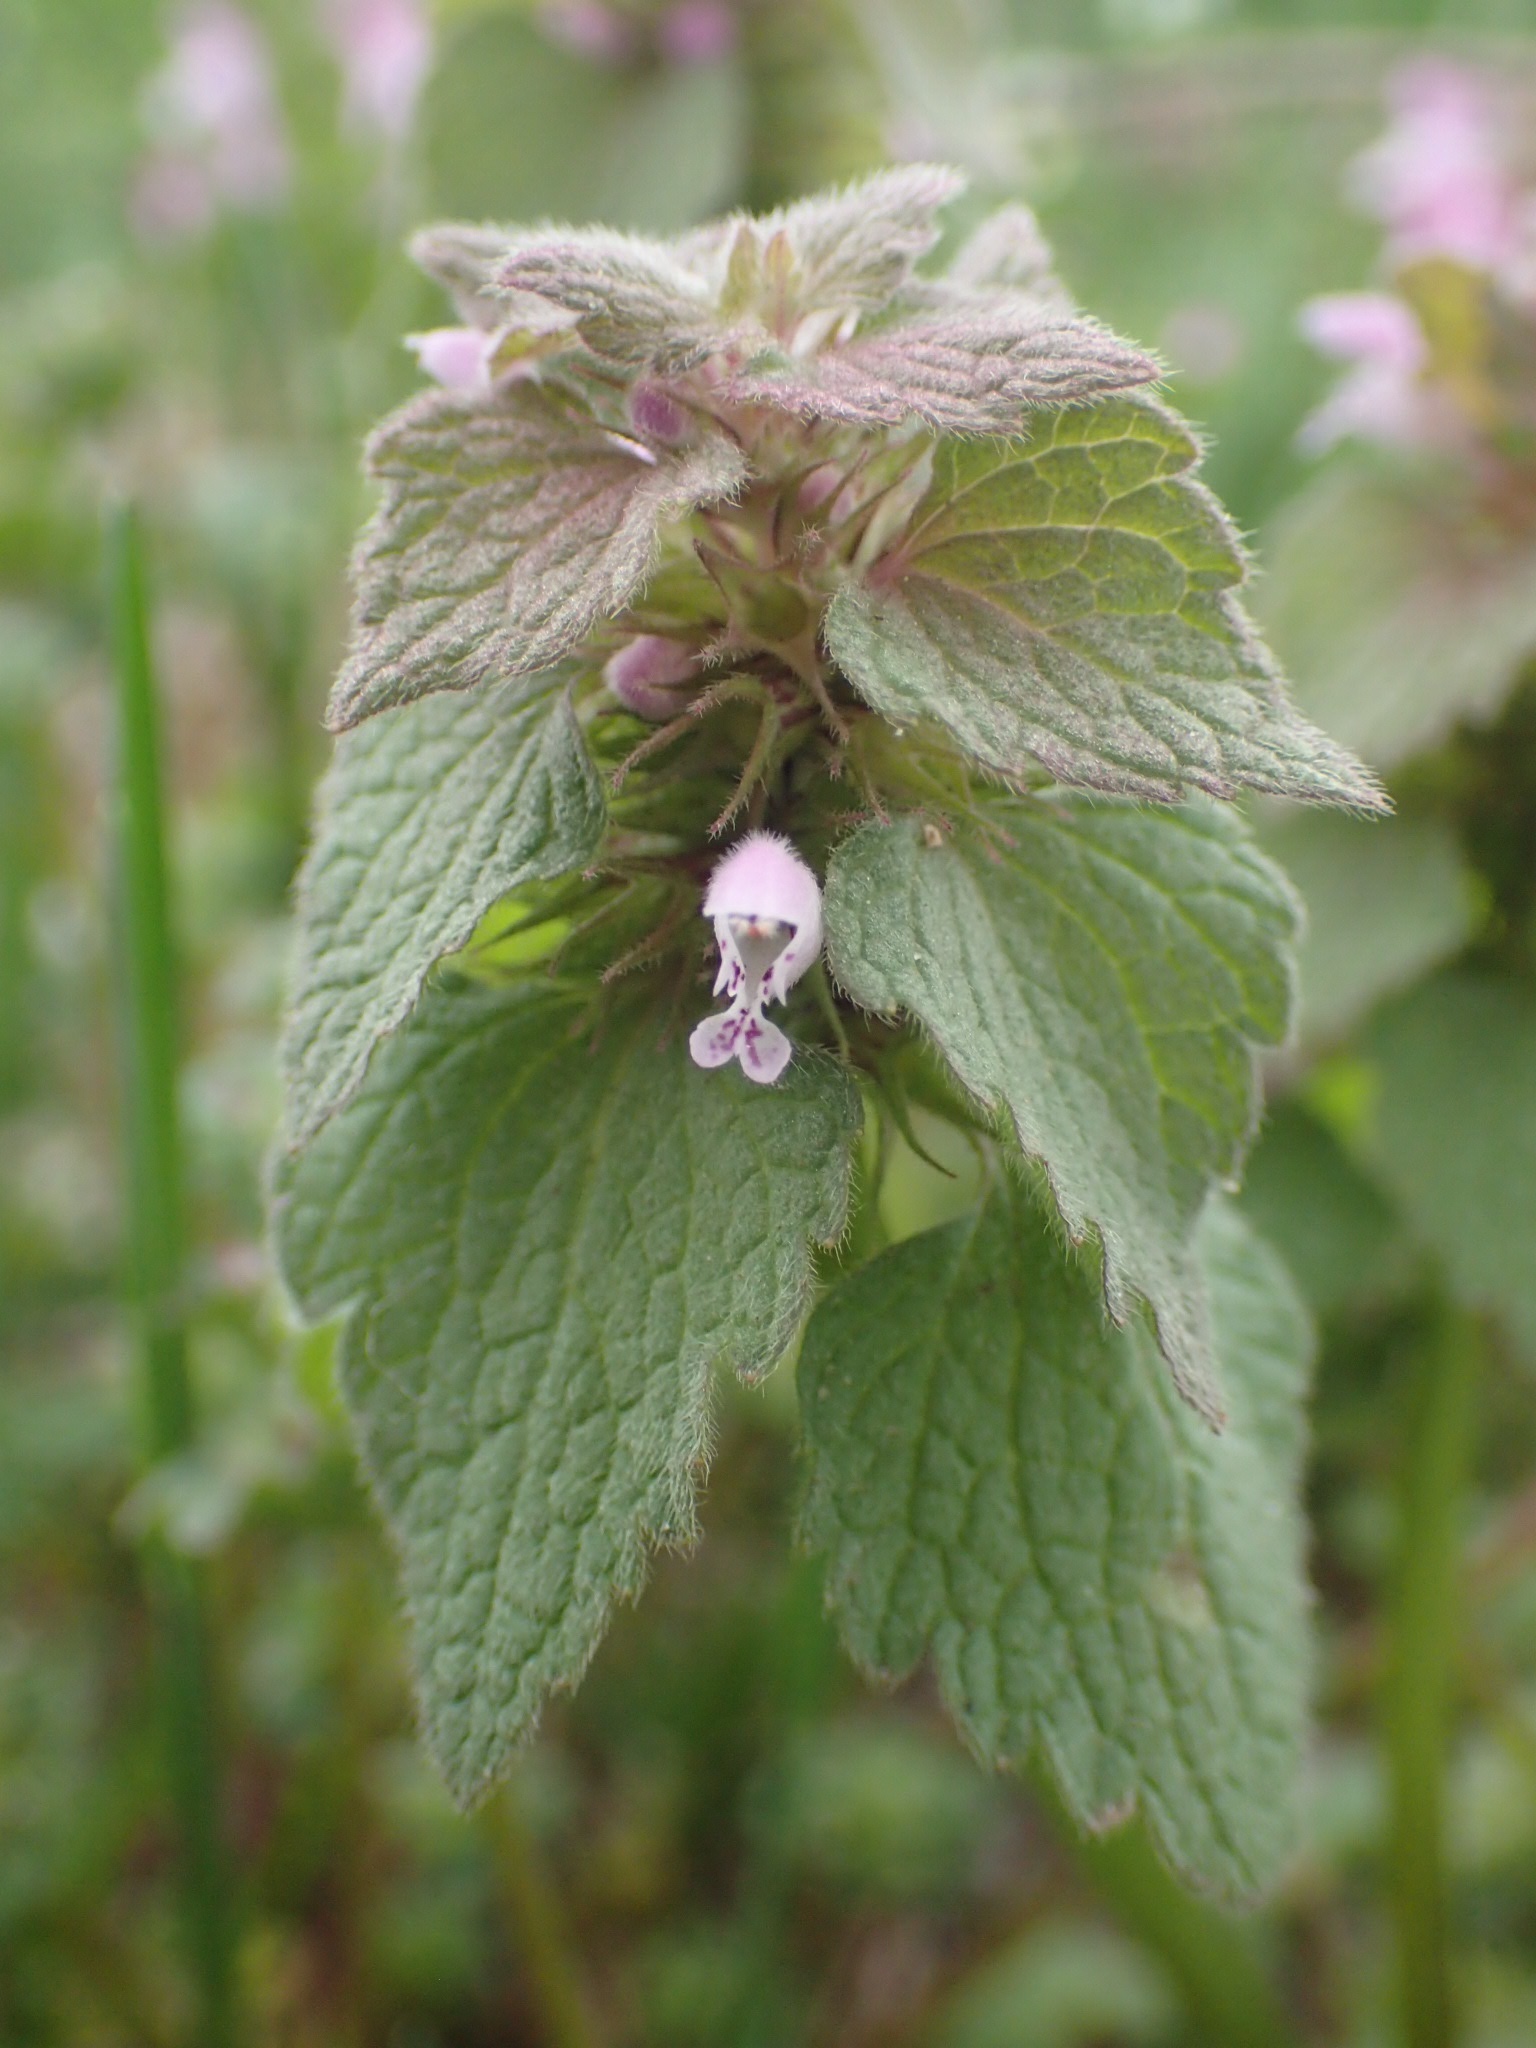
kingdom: Plantae
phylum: Tracheophyta
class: Magnoliopsida
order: Lamiales
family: Lamiaceae
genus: Lamium
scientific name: Lamium purpureum
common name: Red dead-nettle
